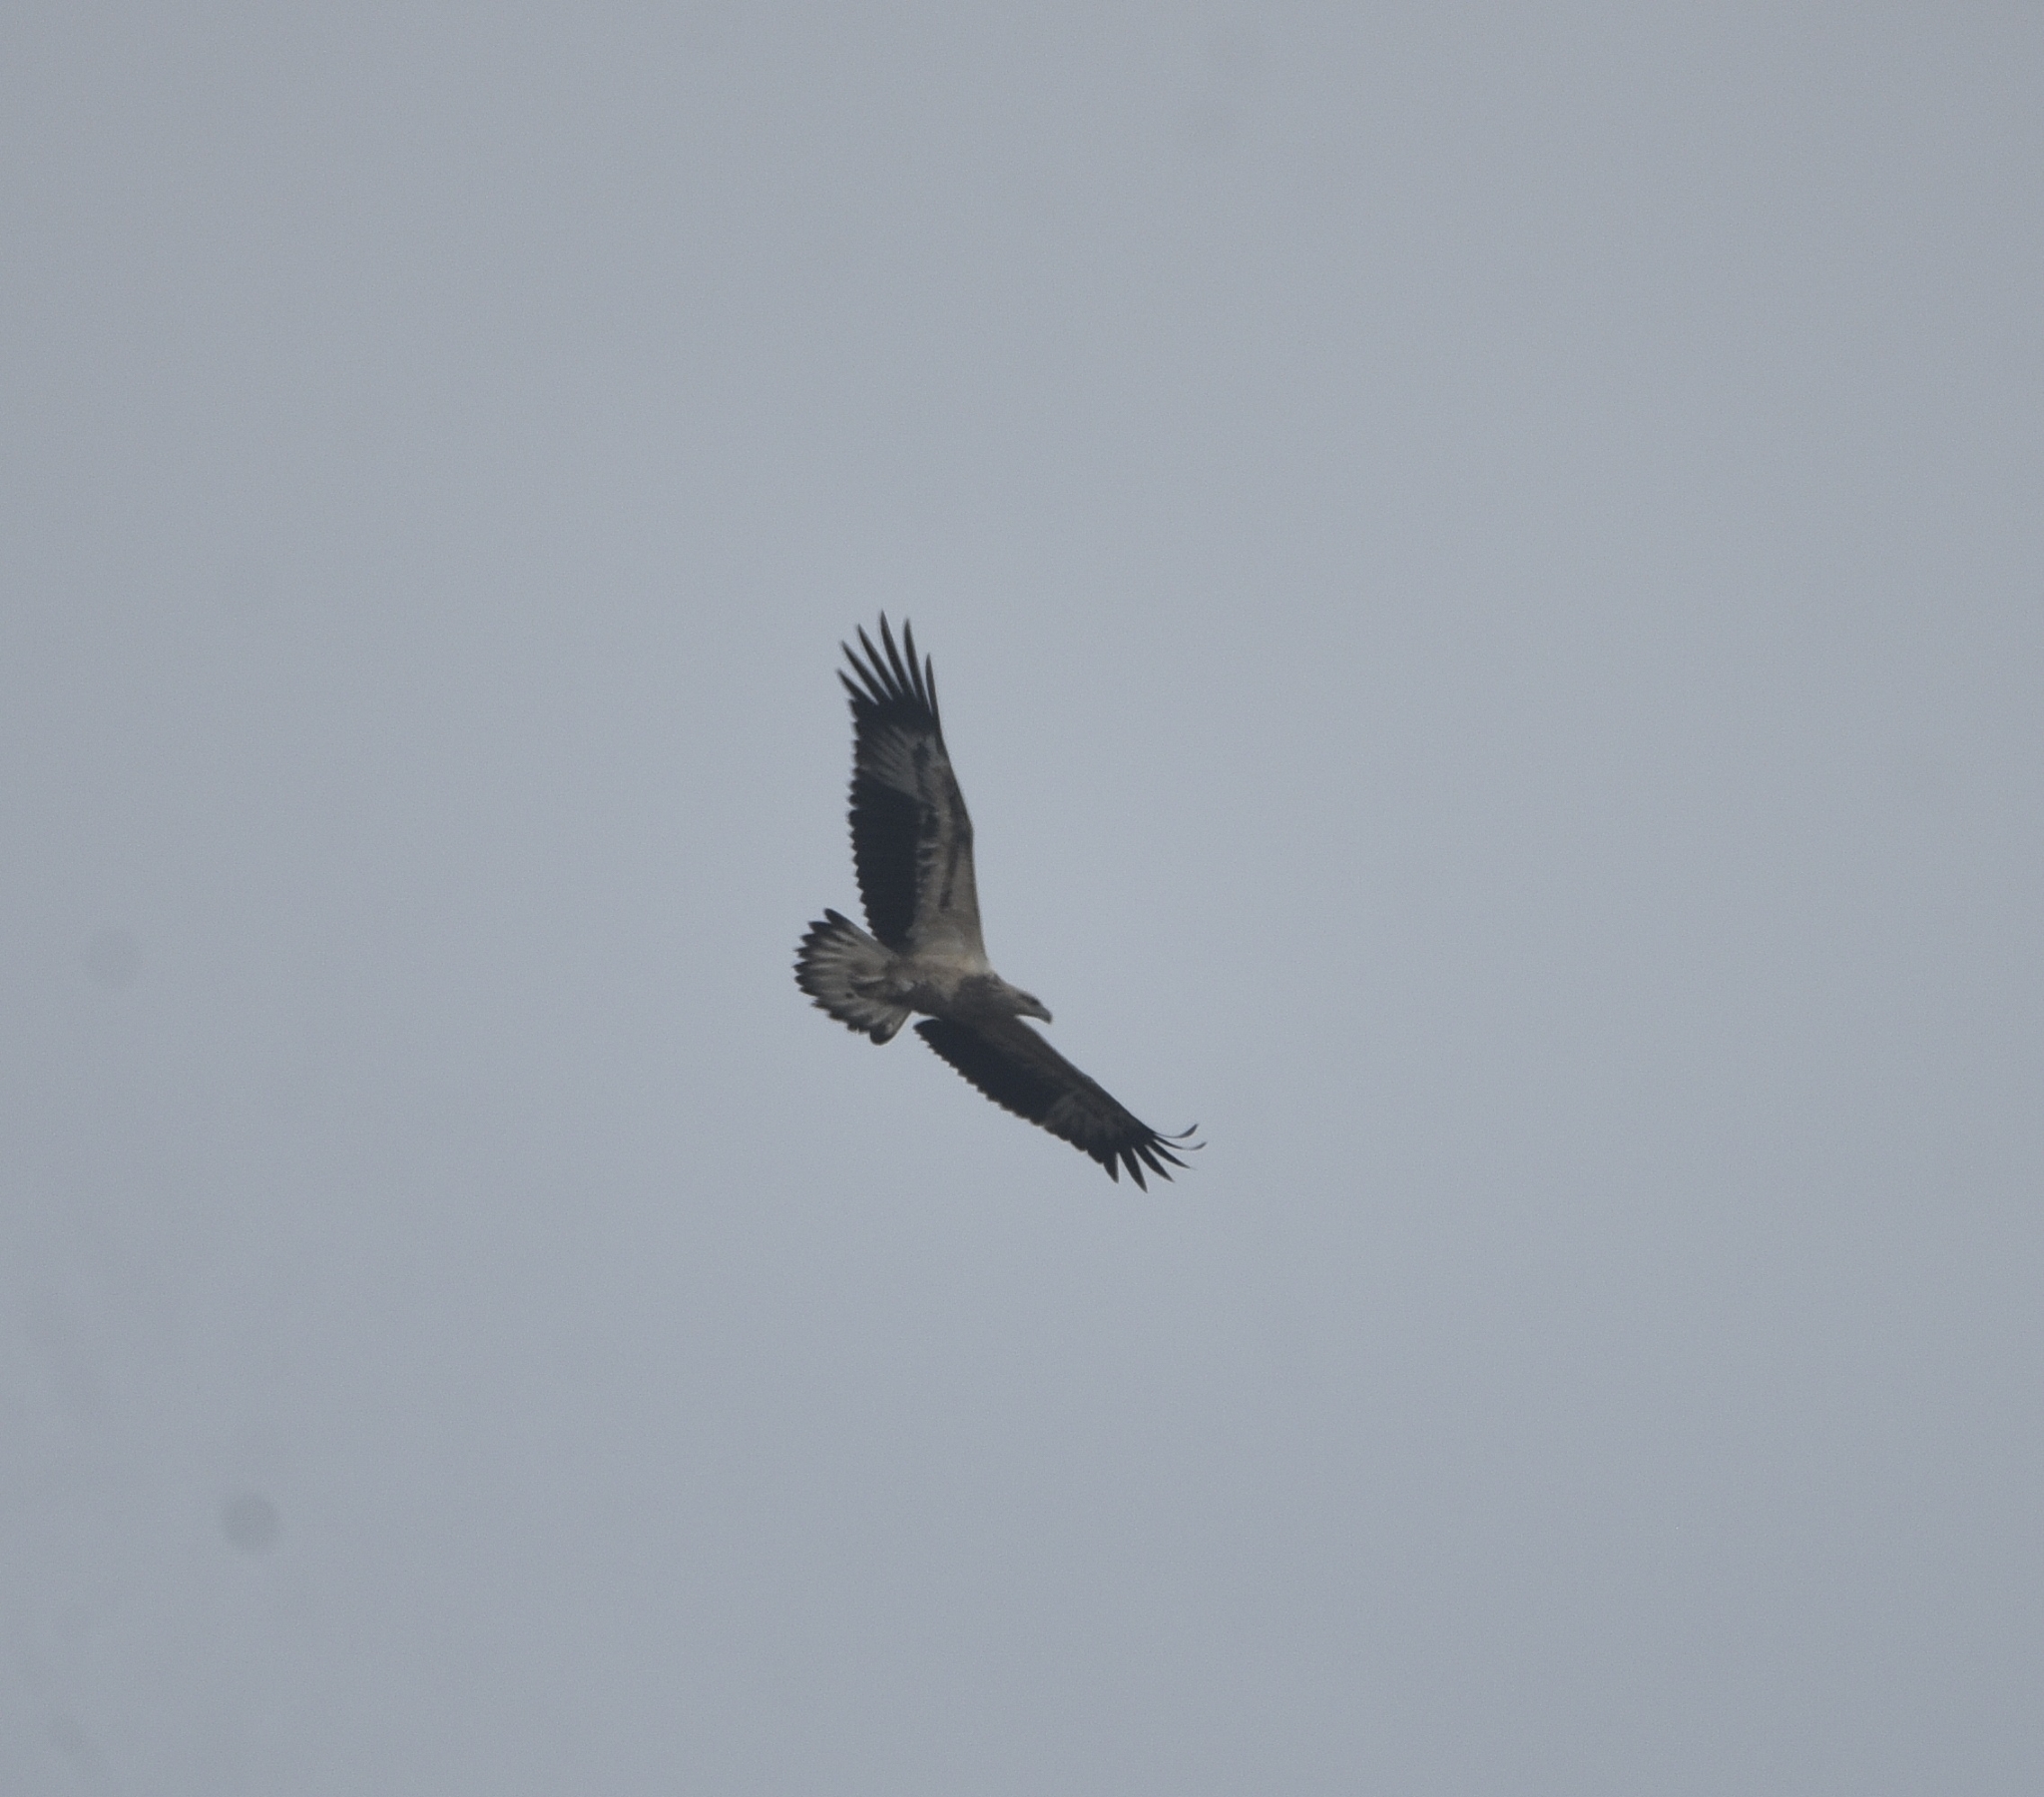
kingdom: Animalia
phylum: Chordata
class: Aves
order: Accipitriformes
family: Accipitridae
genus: Haliaeetus
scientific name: Haliaeetus leucogaster
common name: White-bellied sea eagle
